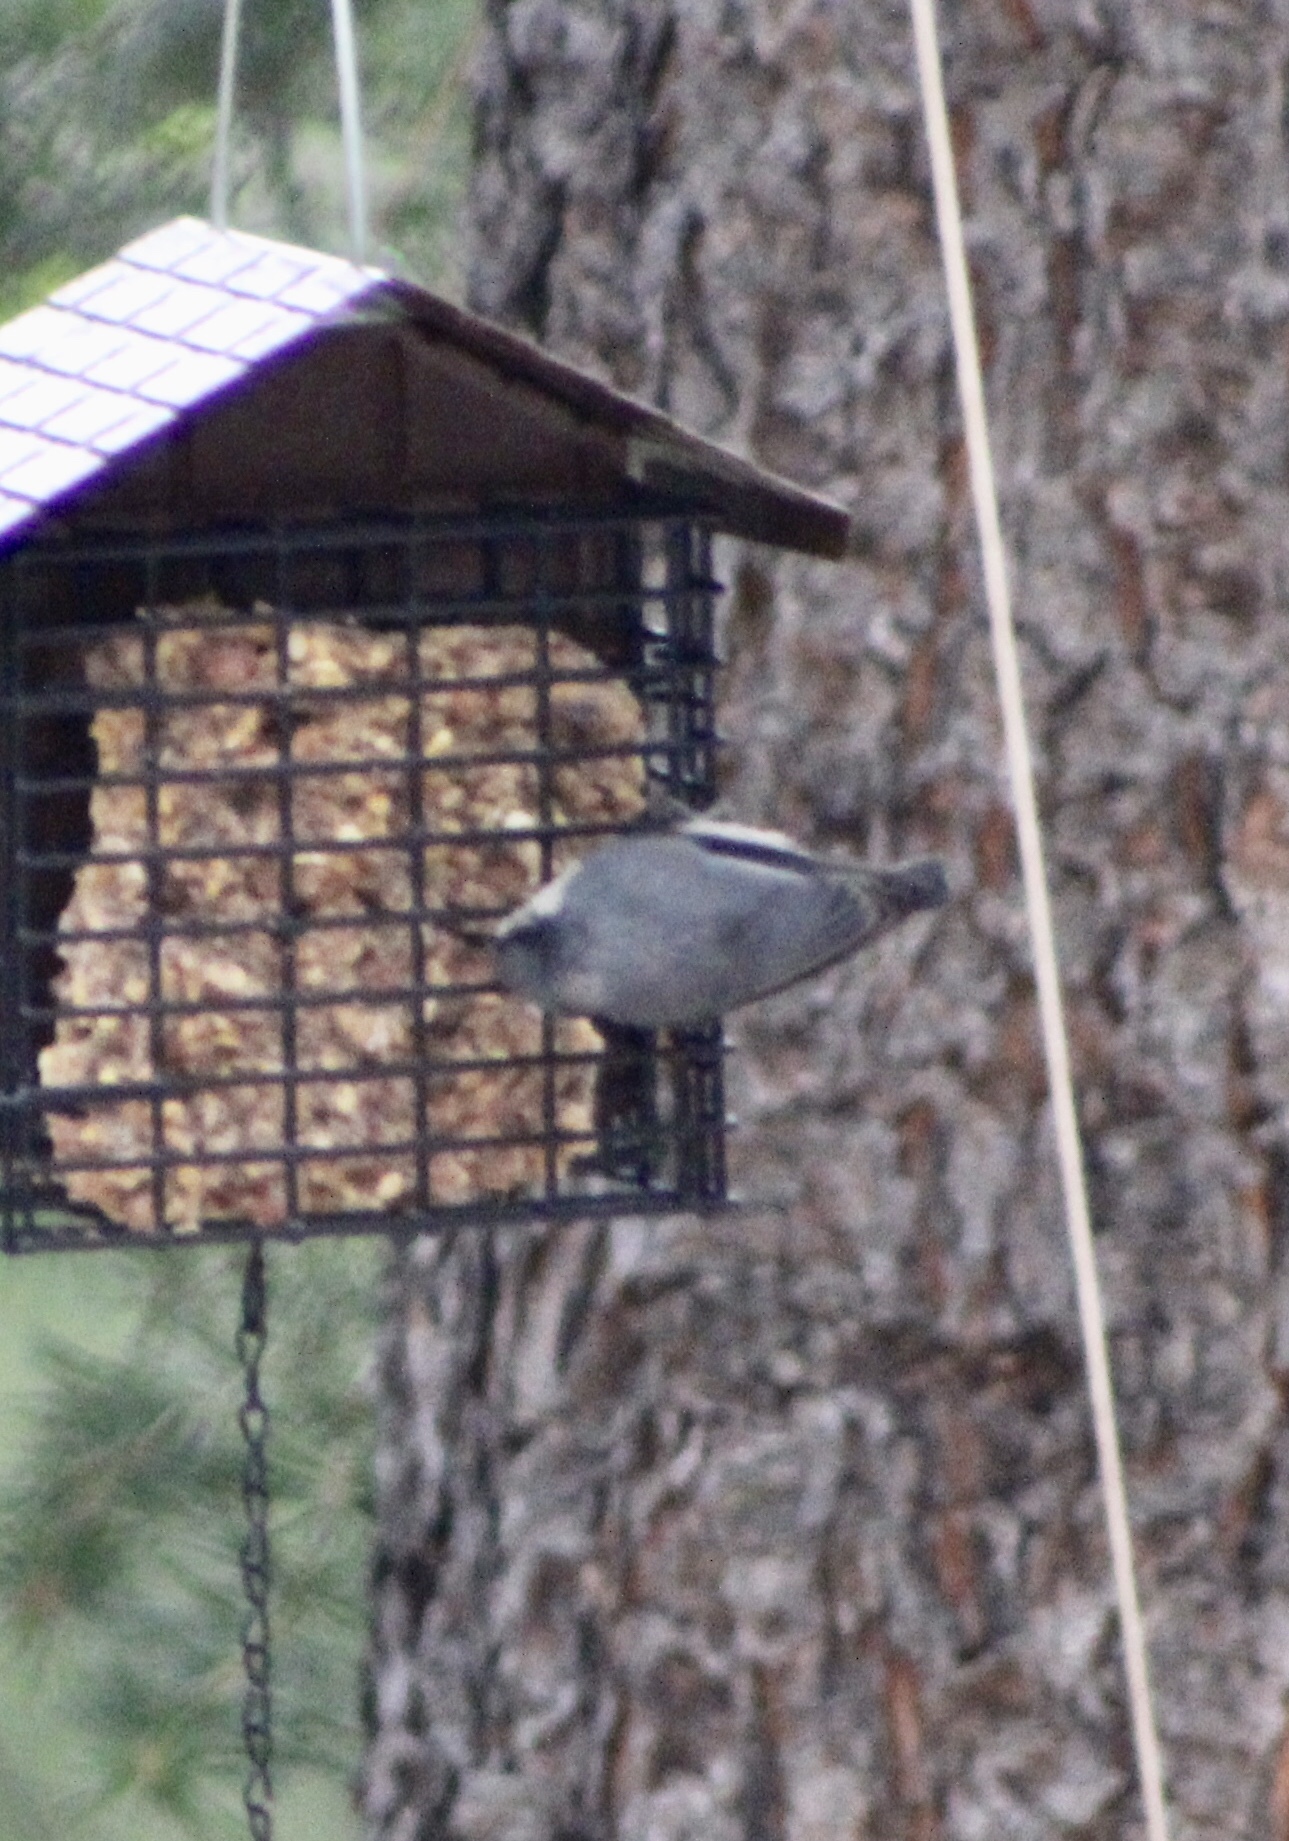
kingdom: Animalia
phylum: Chordata
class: Aves
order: Passeriformes
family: Sittidae
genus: Sitta
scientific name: Sitta pygmaea
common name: Pygmy nuthatch
